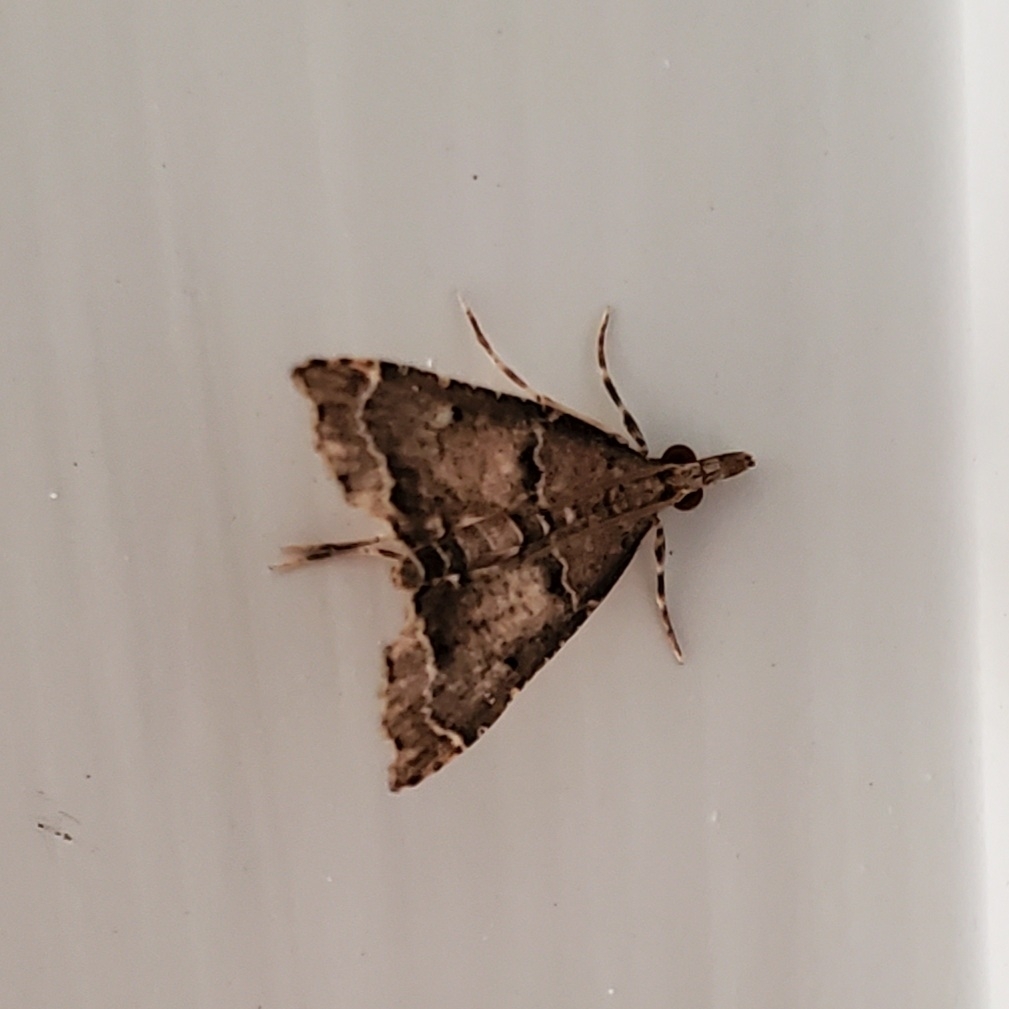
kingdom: Animalia
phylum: Arthropoda
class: Insecta
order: Lepidoptera
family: Crambidae
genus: Diplopseustis
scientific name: Diplopseustis perieresalis
